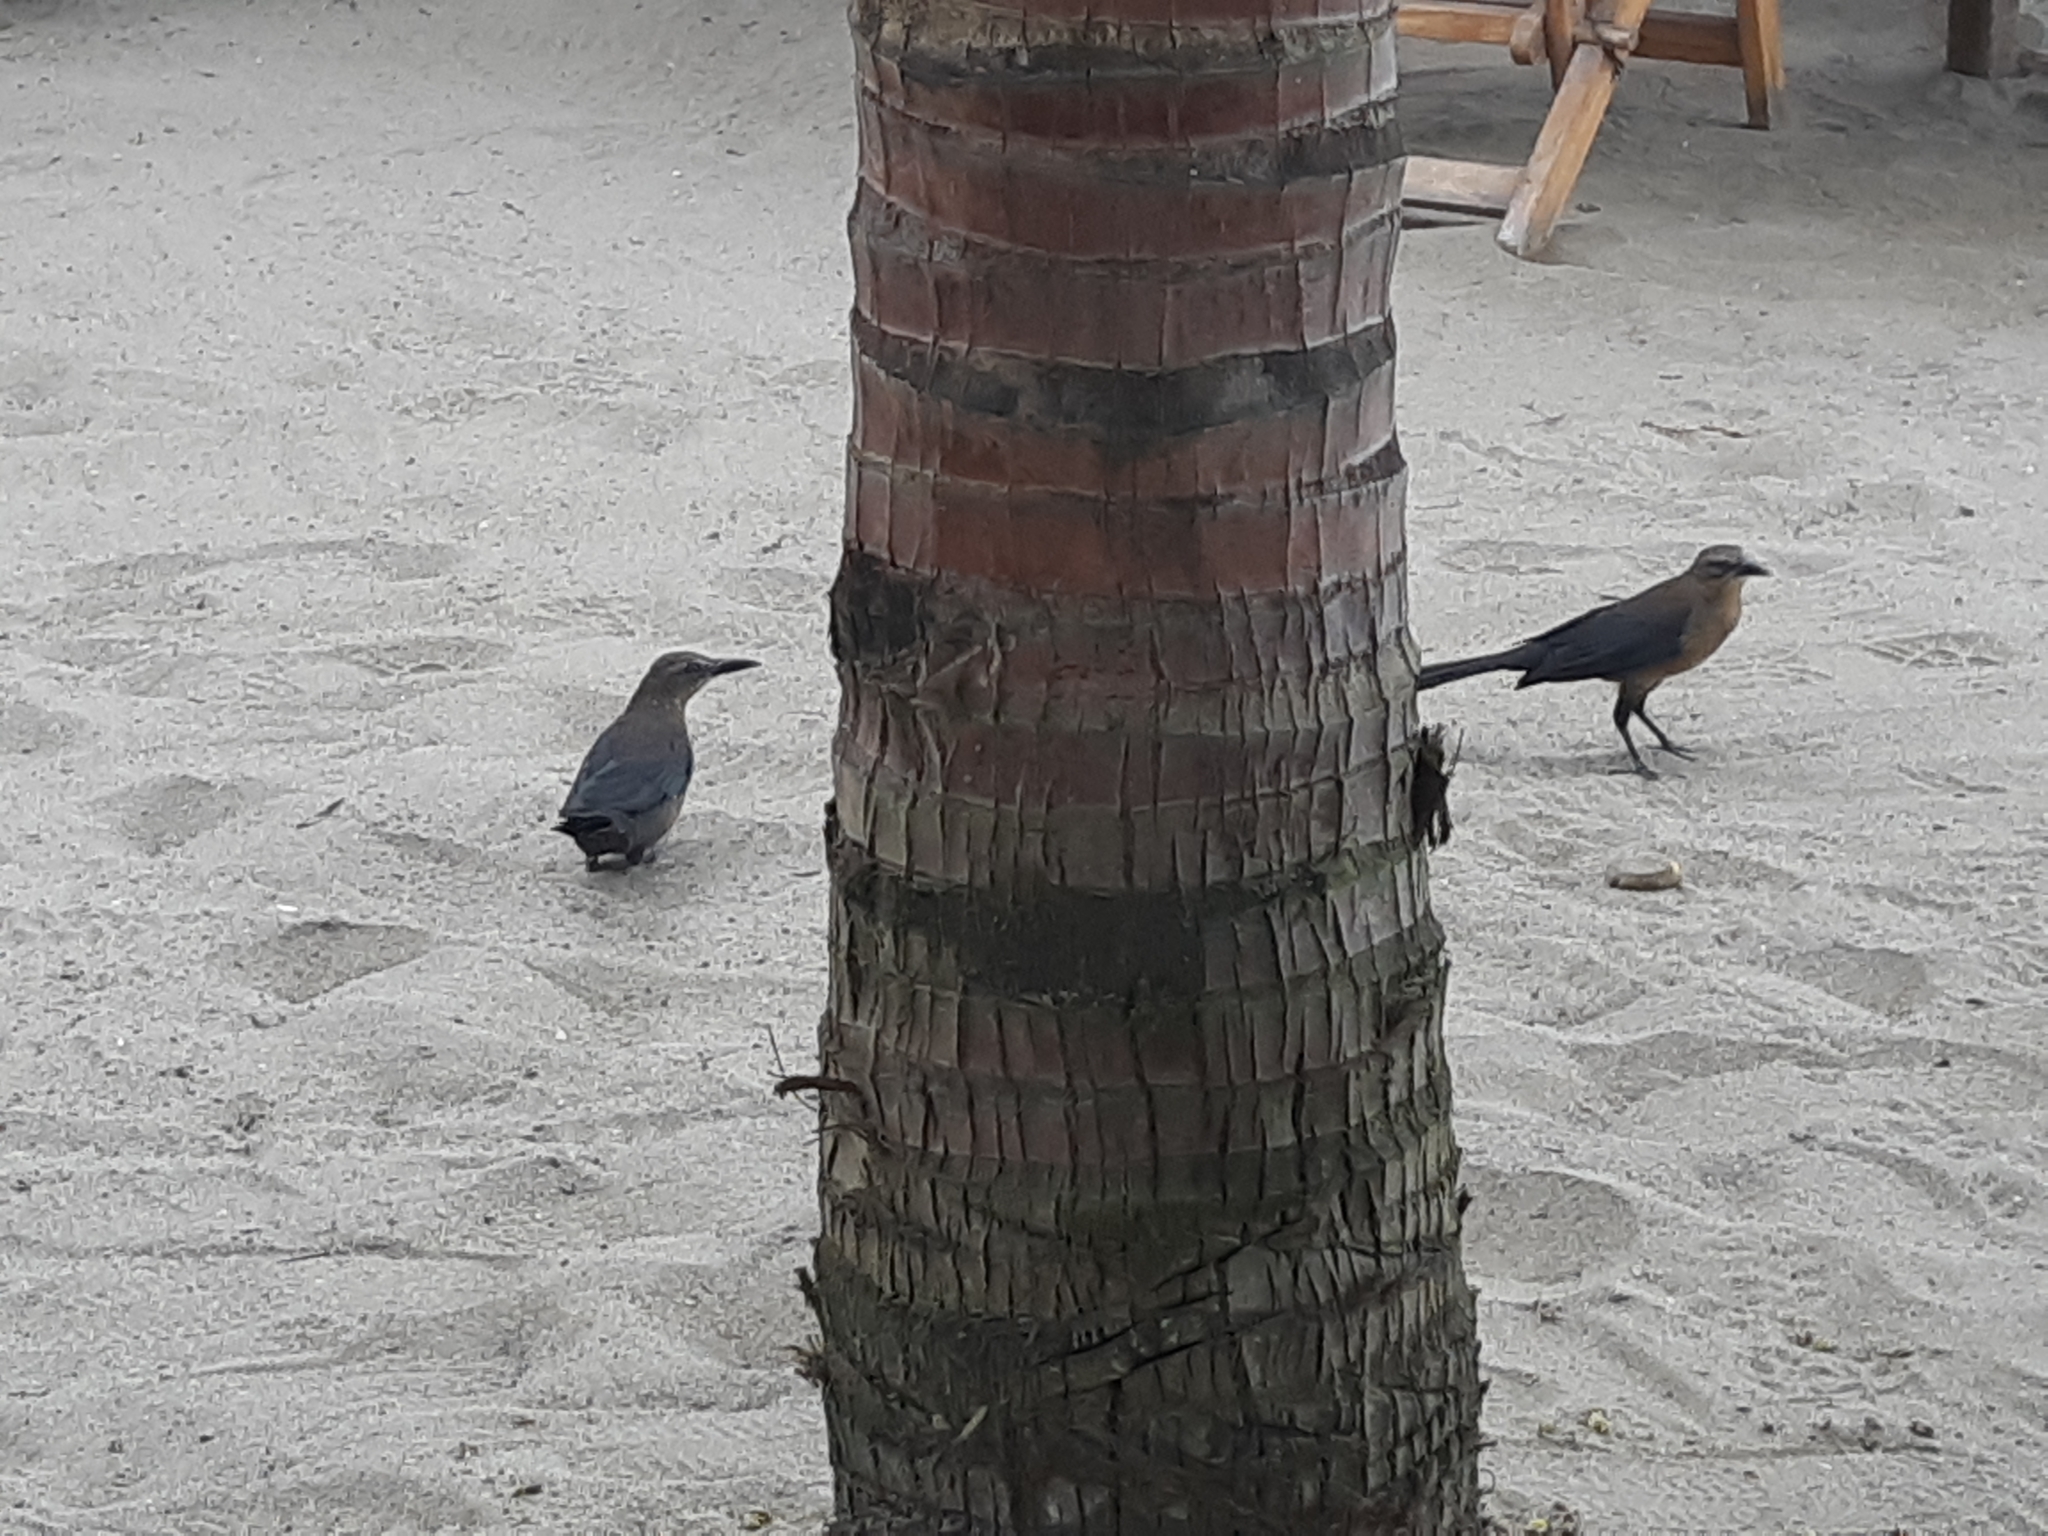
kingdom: Animalia
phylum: Chordata
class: Aves
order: Passeriformes
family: Icteridae
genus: Quiscalus
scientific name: Quiscalus mexicanus
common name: Great-tailed grackle
